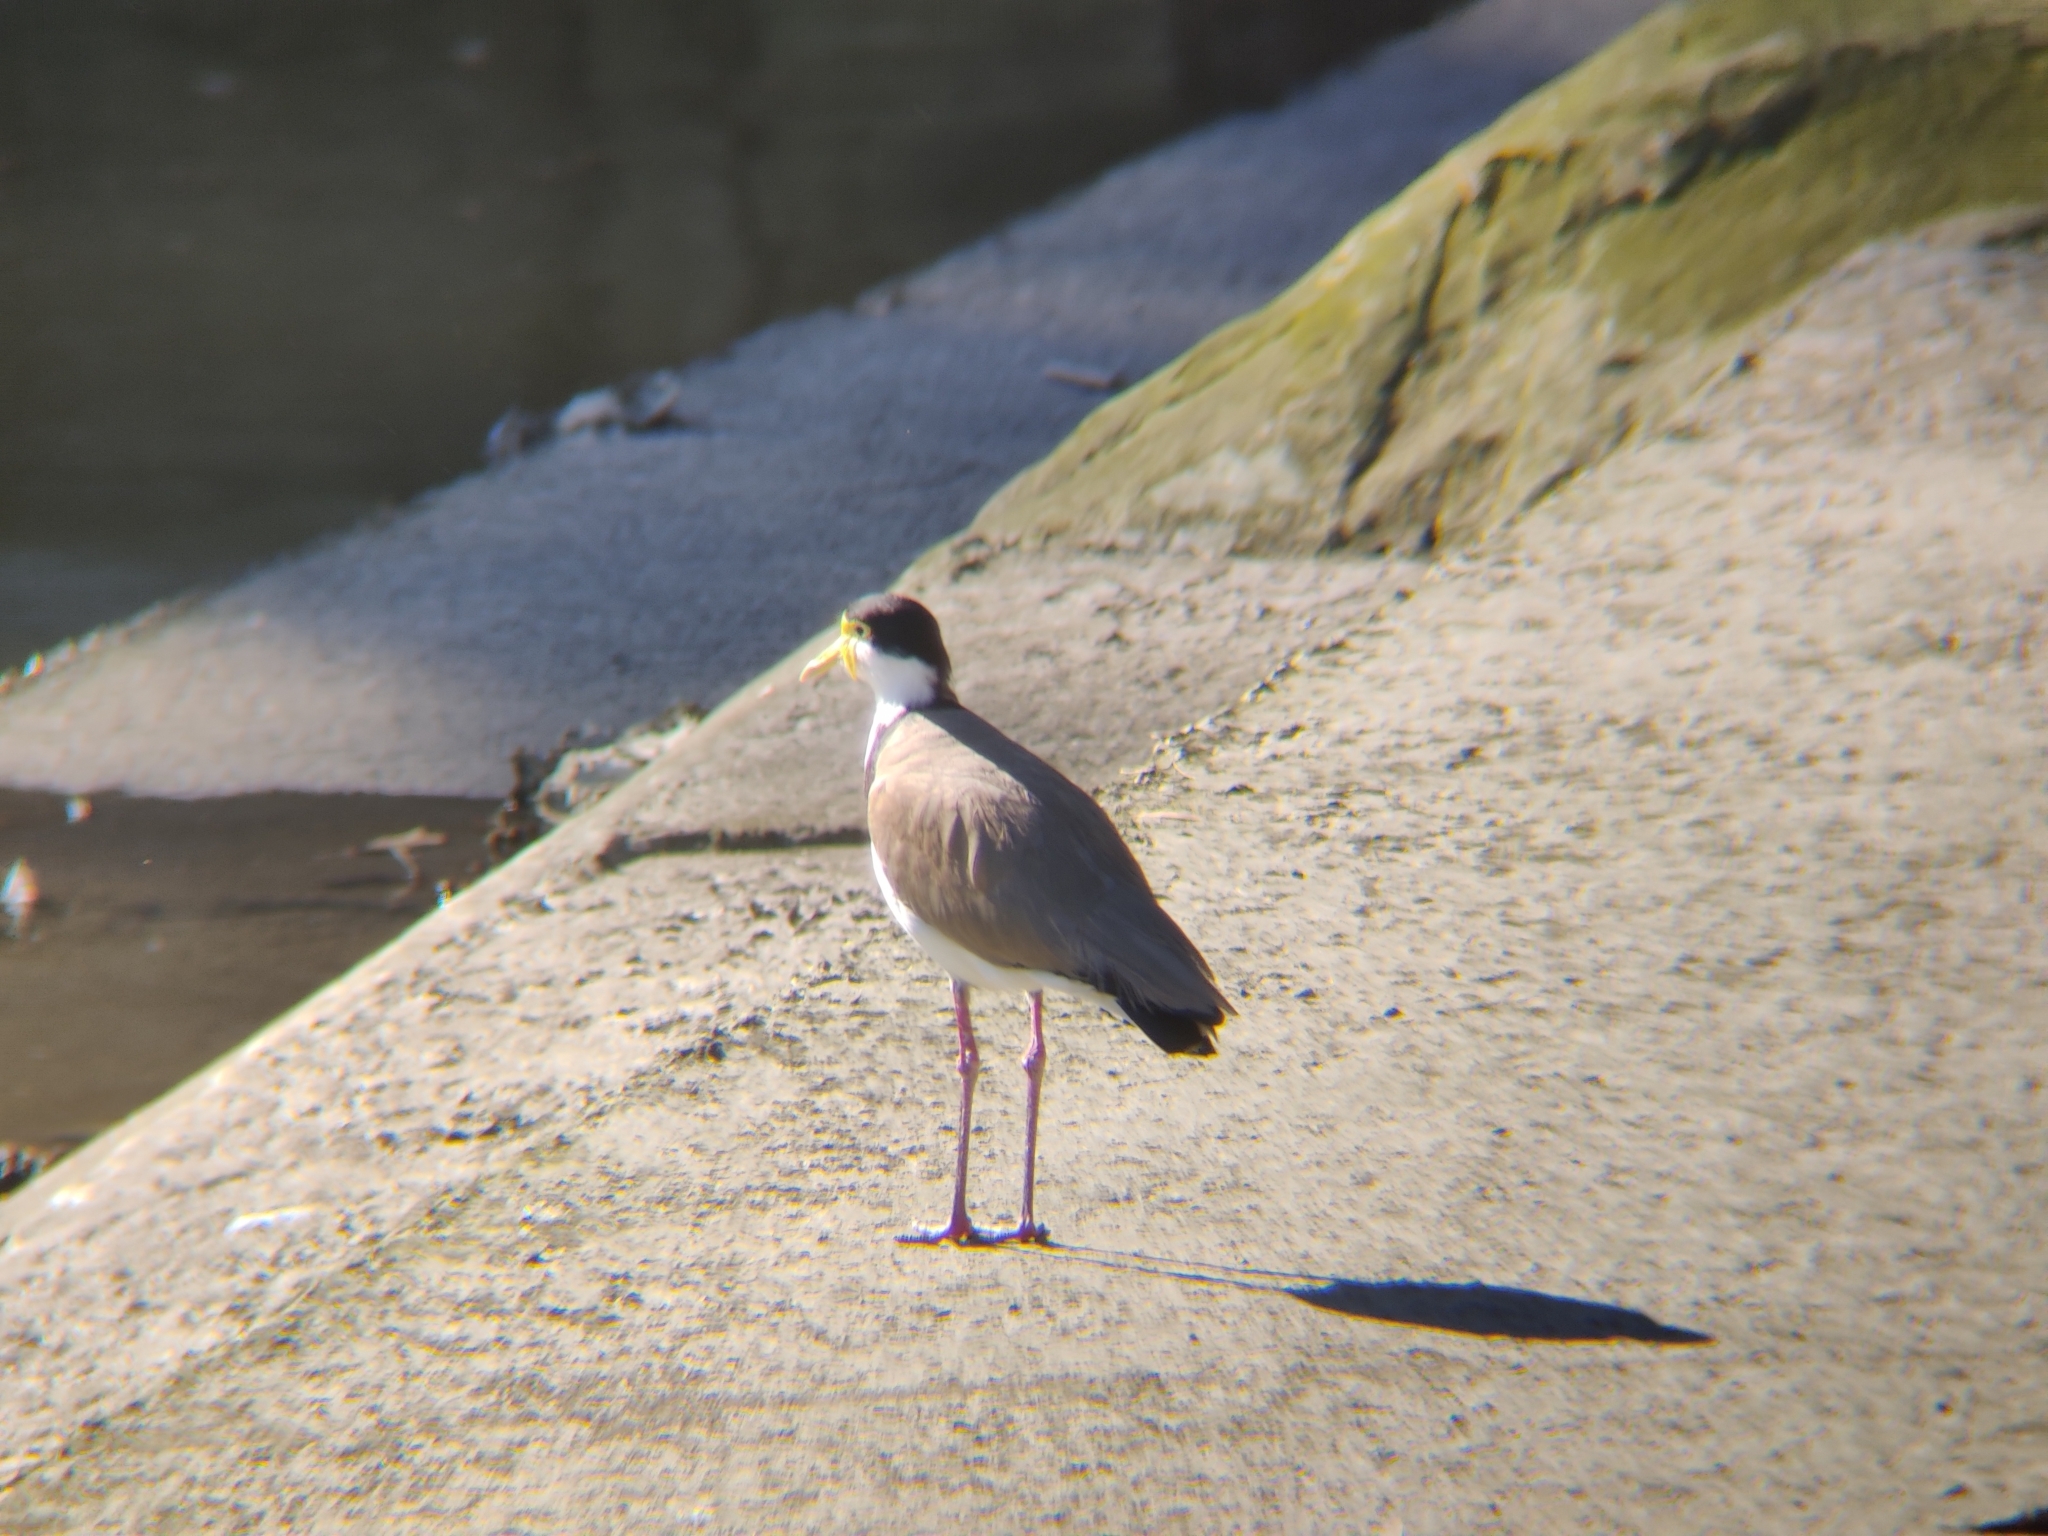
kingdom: Animalia
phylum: Chordata
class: Aves
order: Charadriiformes
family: Charadriidae
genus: Vanellus
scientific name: Vanellus miles
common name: Masked lapwing
